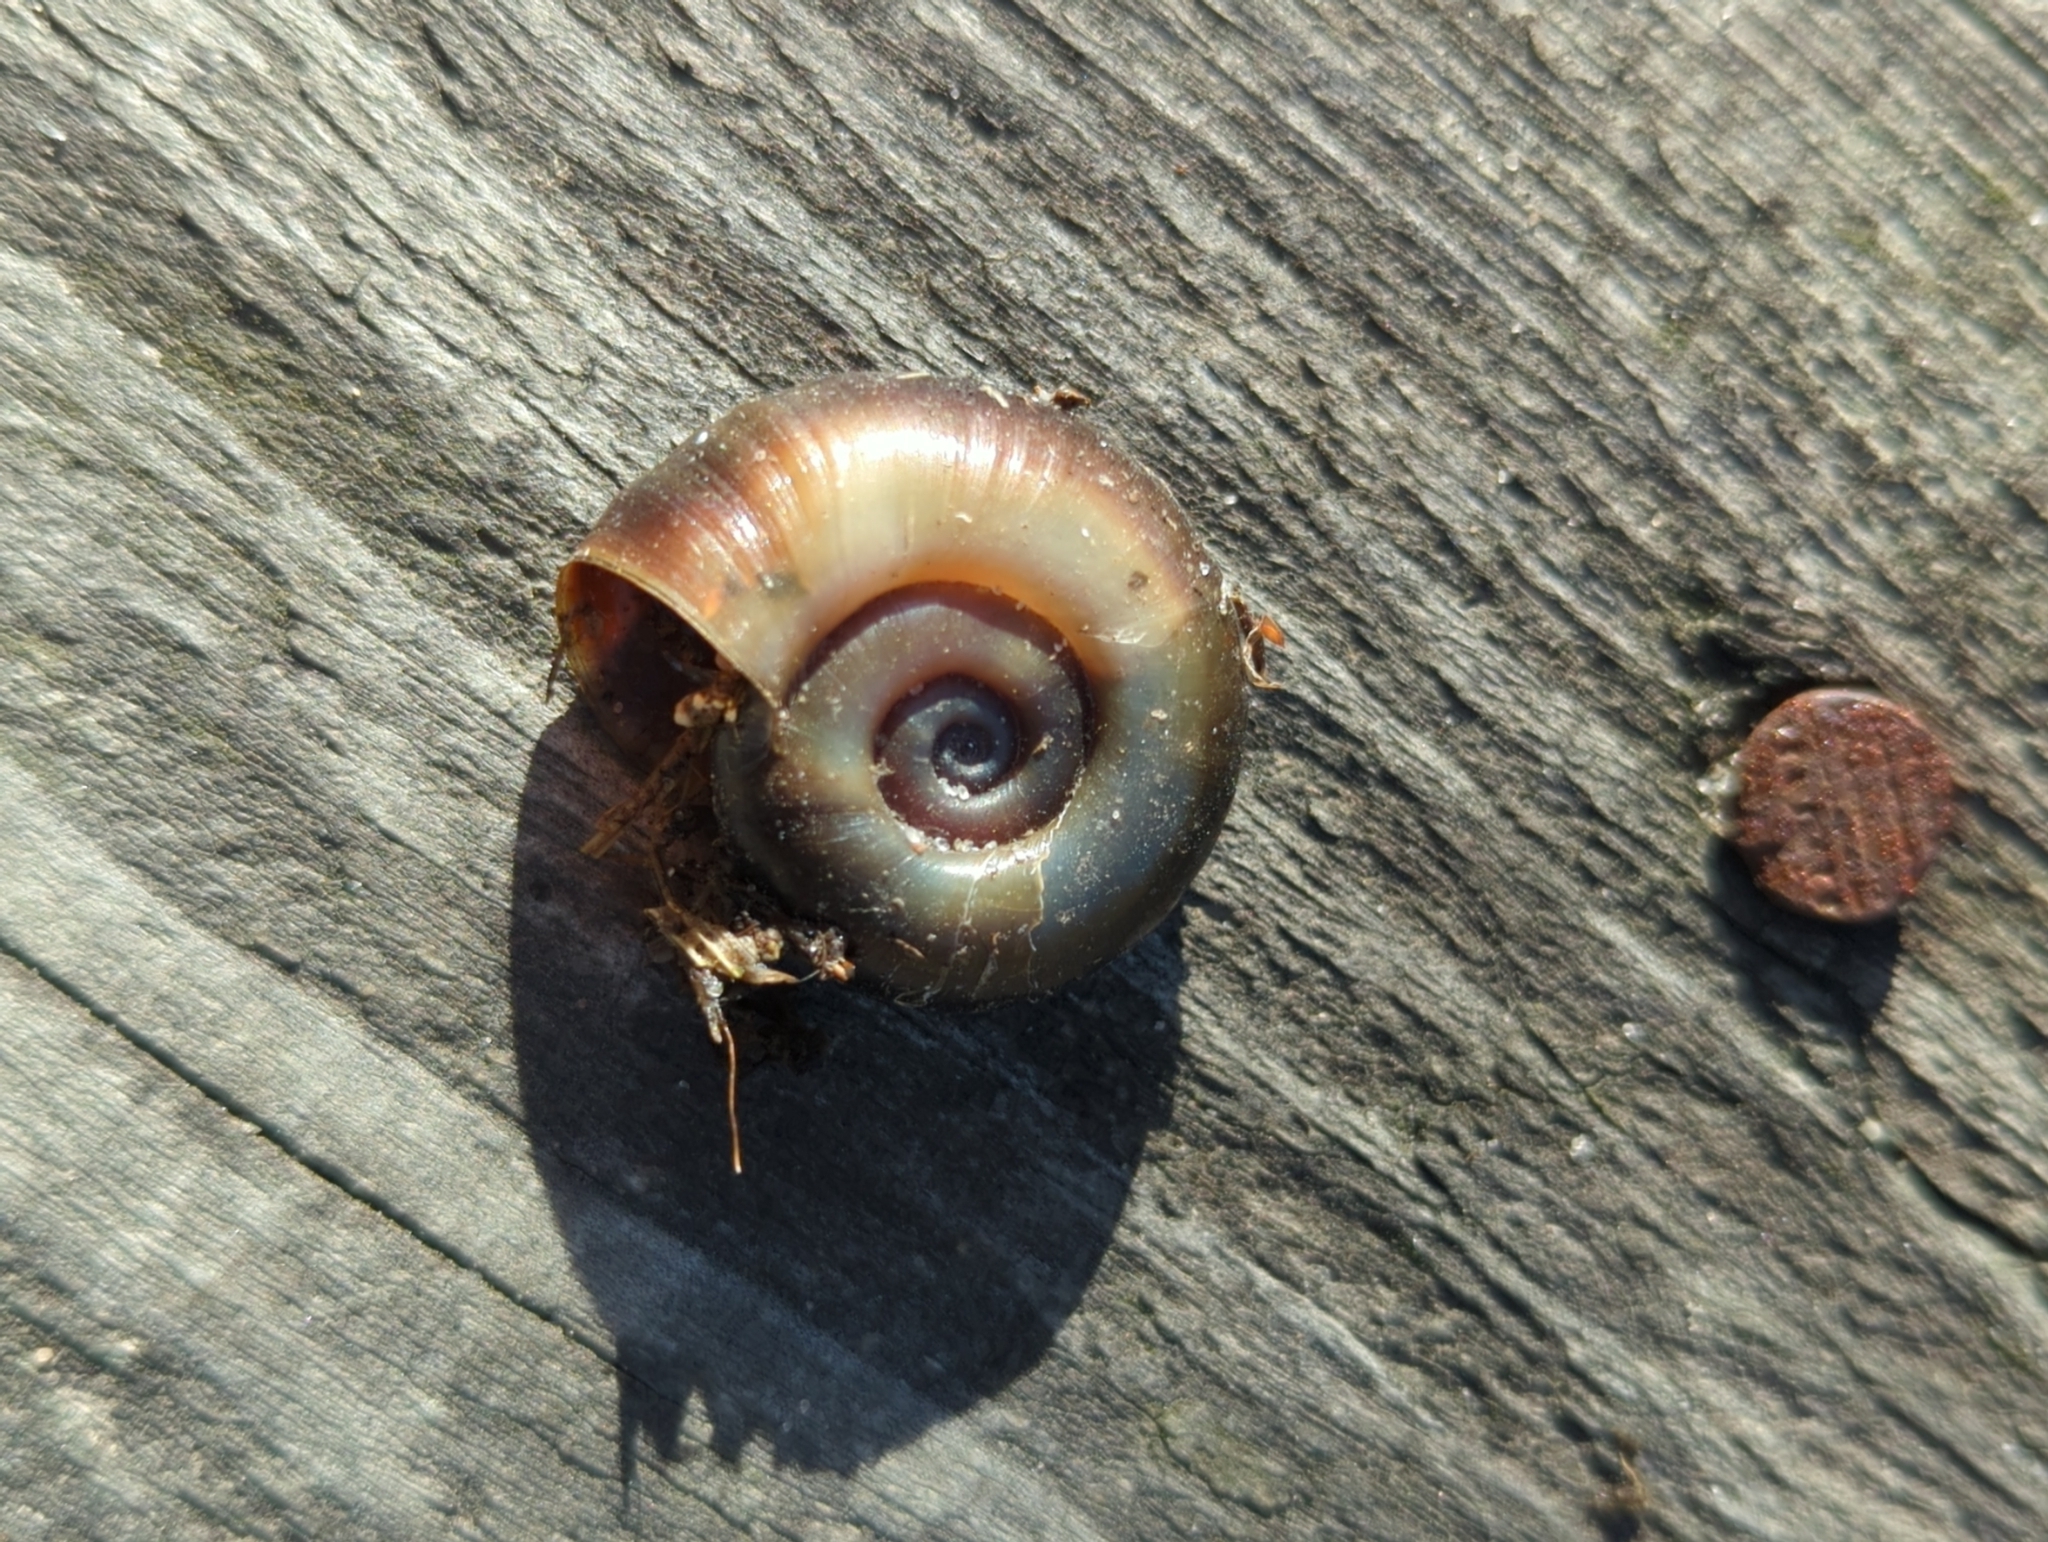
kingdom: Animalia
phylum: Mollusca
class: Gastropoda
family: Planorbidae
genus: Planorbarius
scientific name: Planorbarius corneus
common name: Great ramshorn
